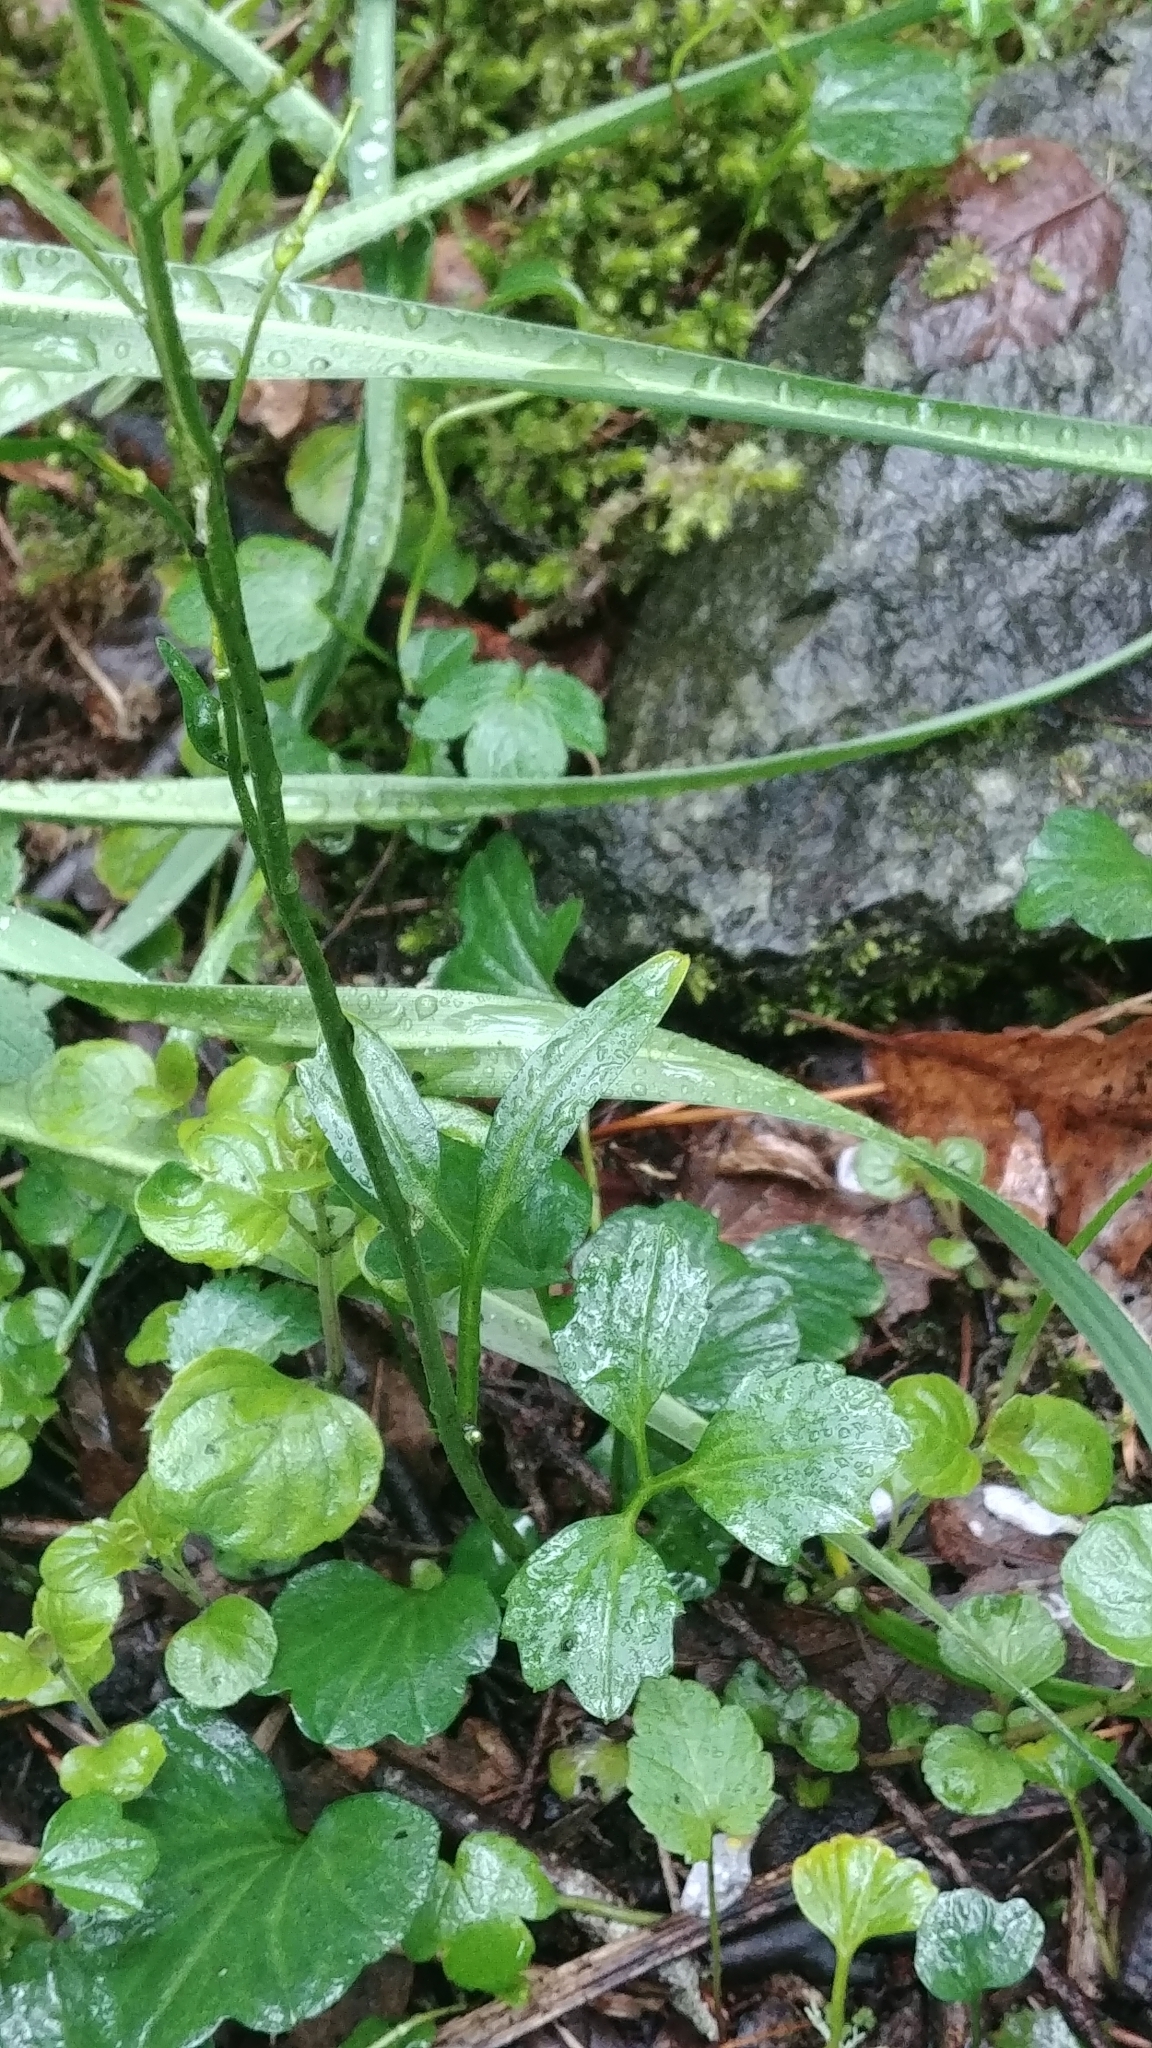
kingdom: Plantae
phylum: Tracheophyta
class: Magnoliopsida
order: Brassicales
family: Brassicaceae
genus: Cardamine
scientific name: Cardamine nuttallii
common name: Nuttall's toothwort
